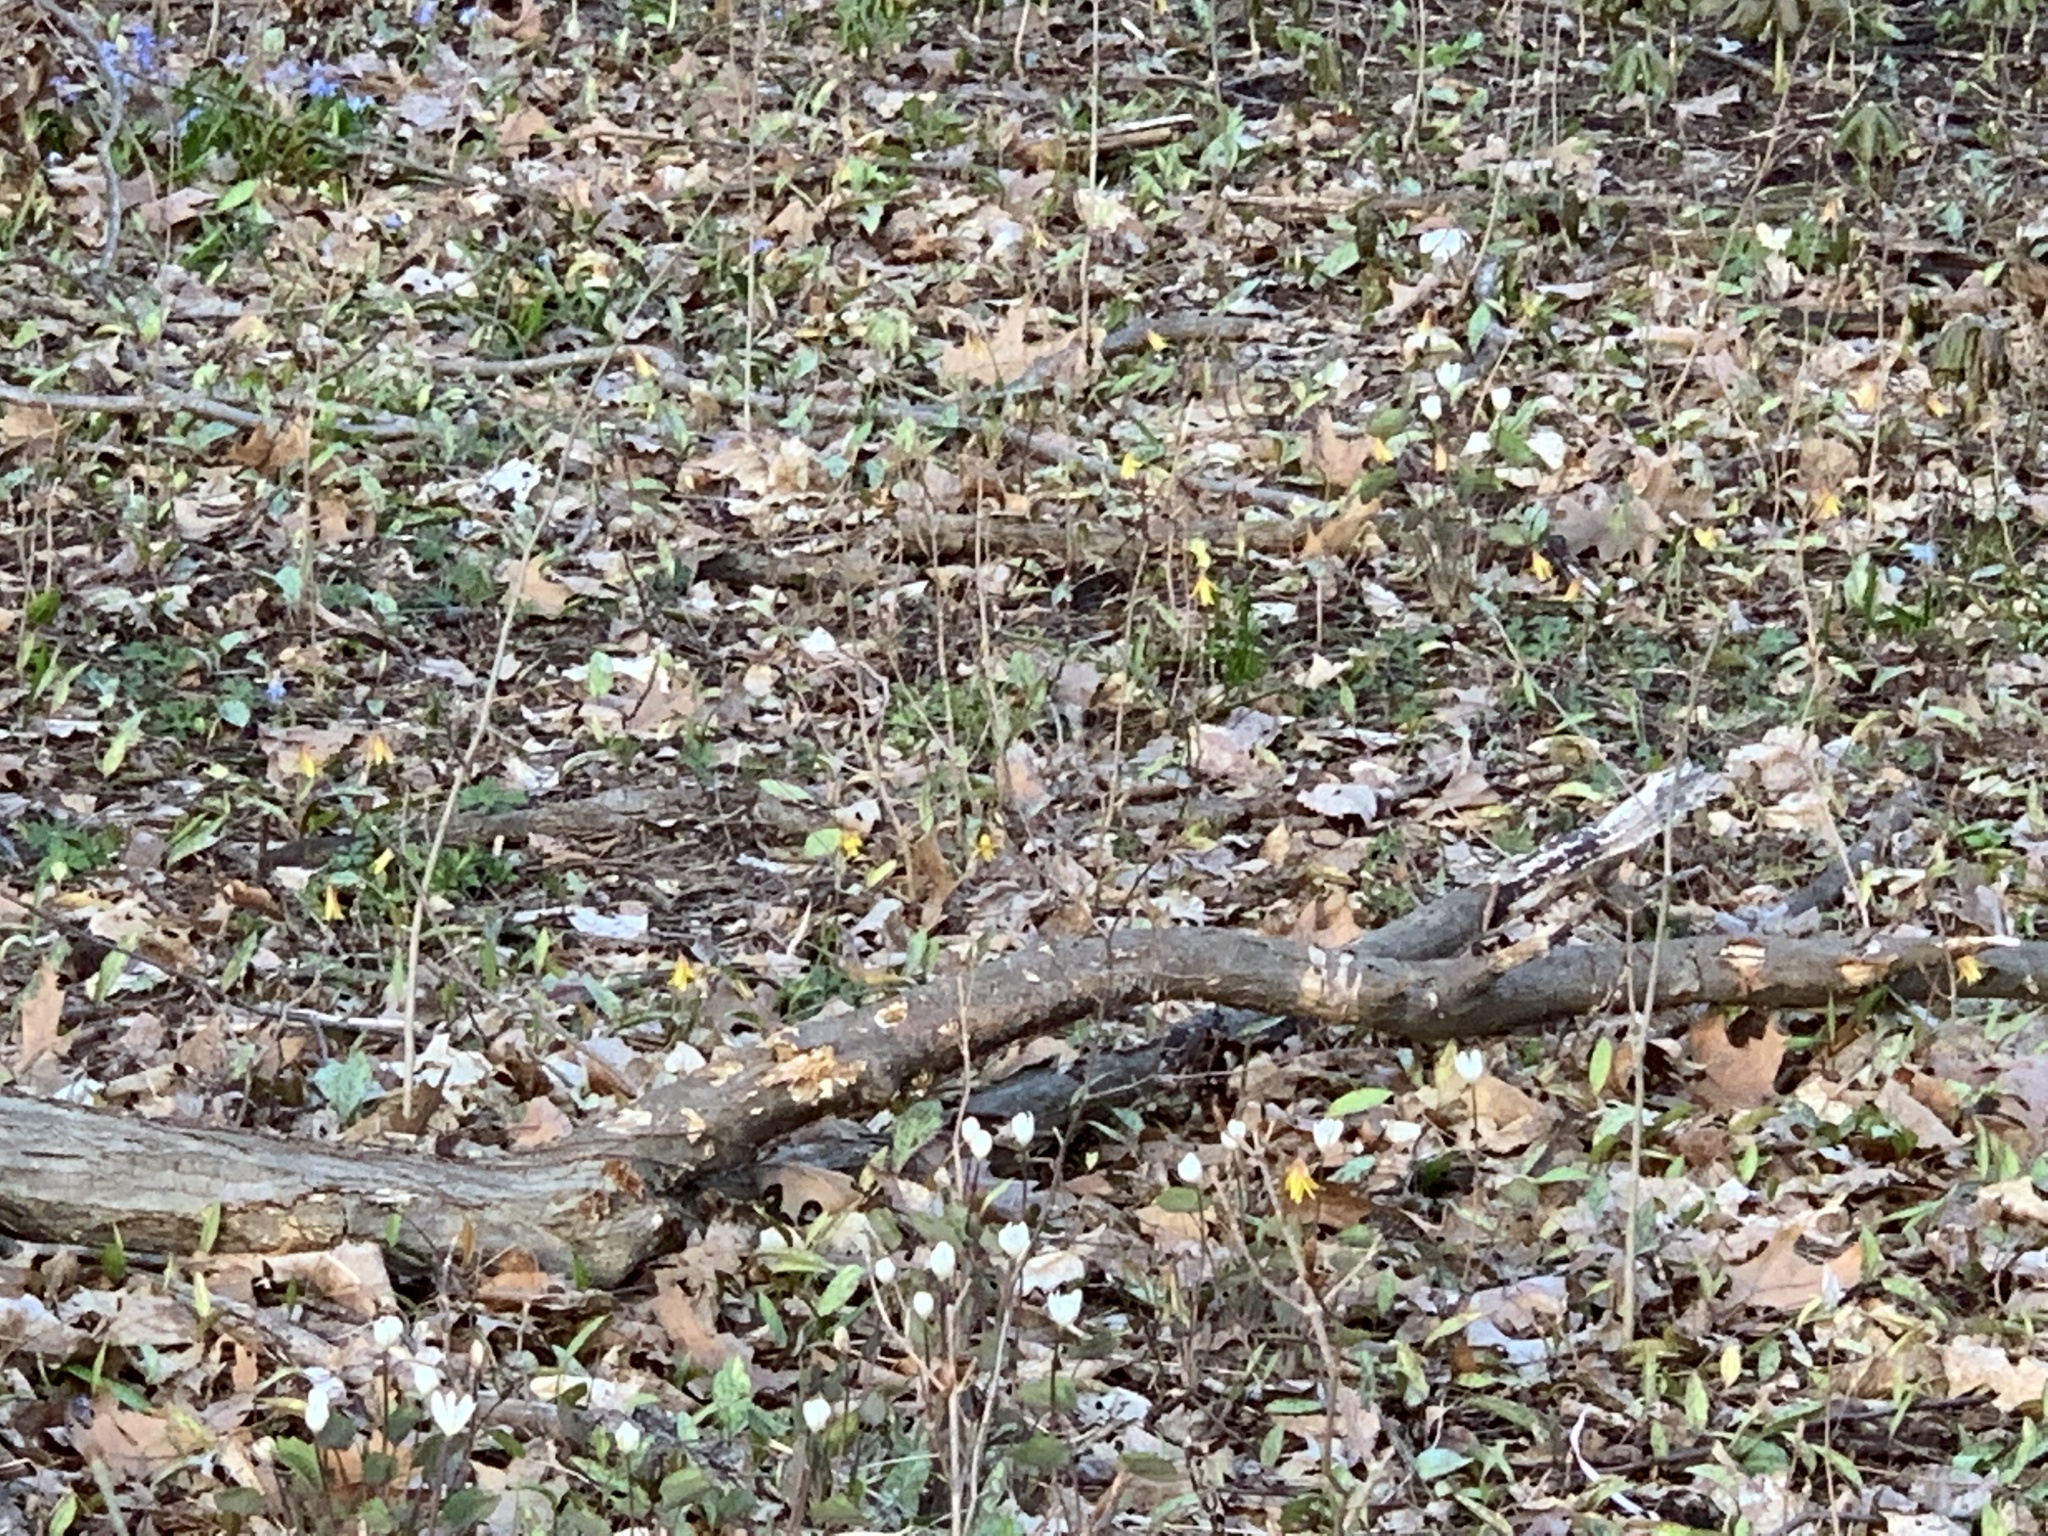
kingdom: Plantae
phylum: Tracheophyta
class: Magnoliopsida
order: Ranunculales
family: Berberidaceae
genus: Jeffersonia
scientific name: Jeffersonia diphylla
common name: Rheumatism-root
